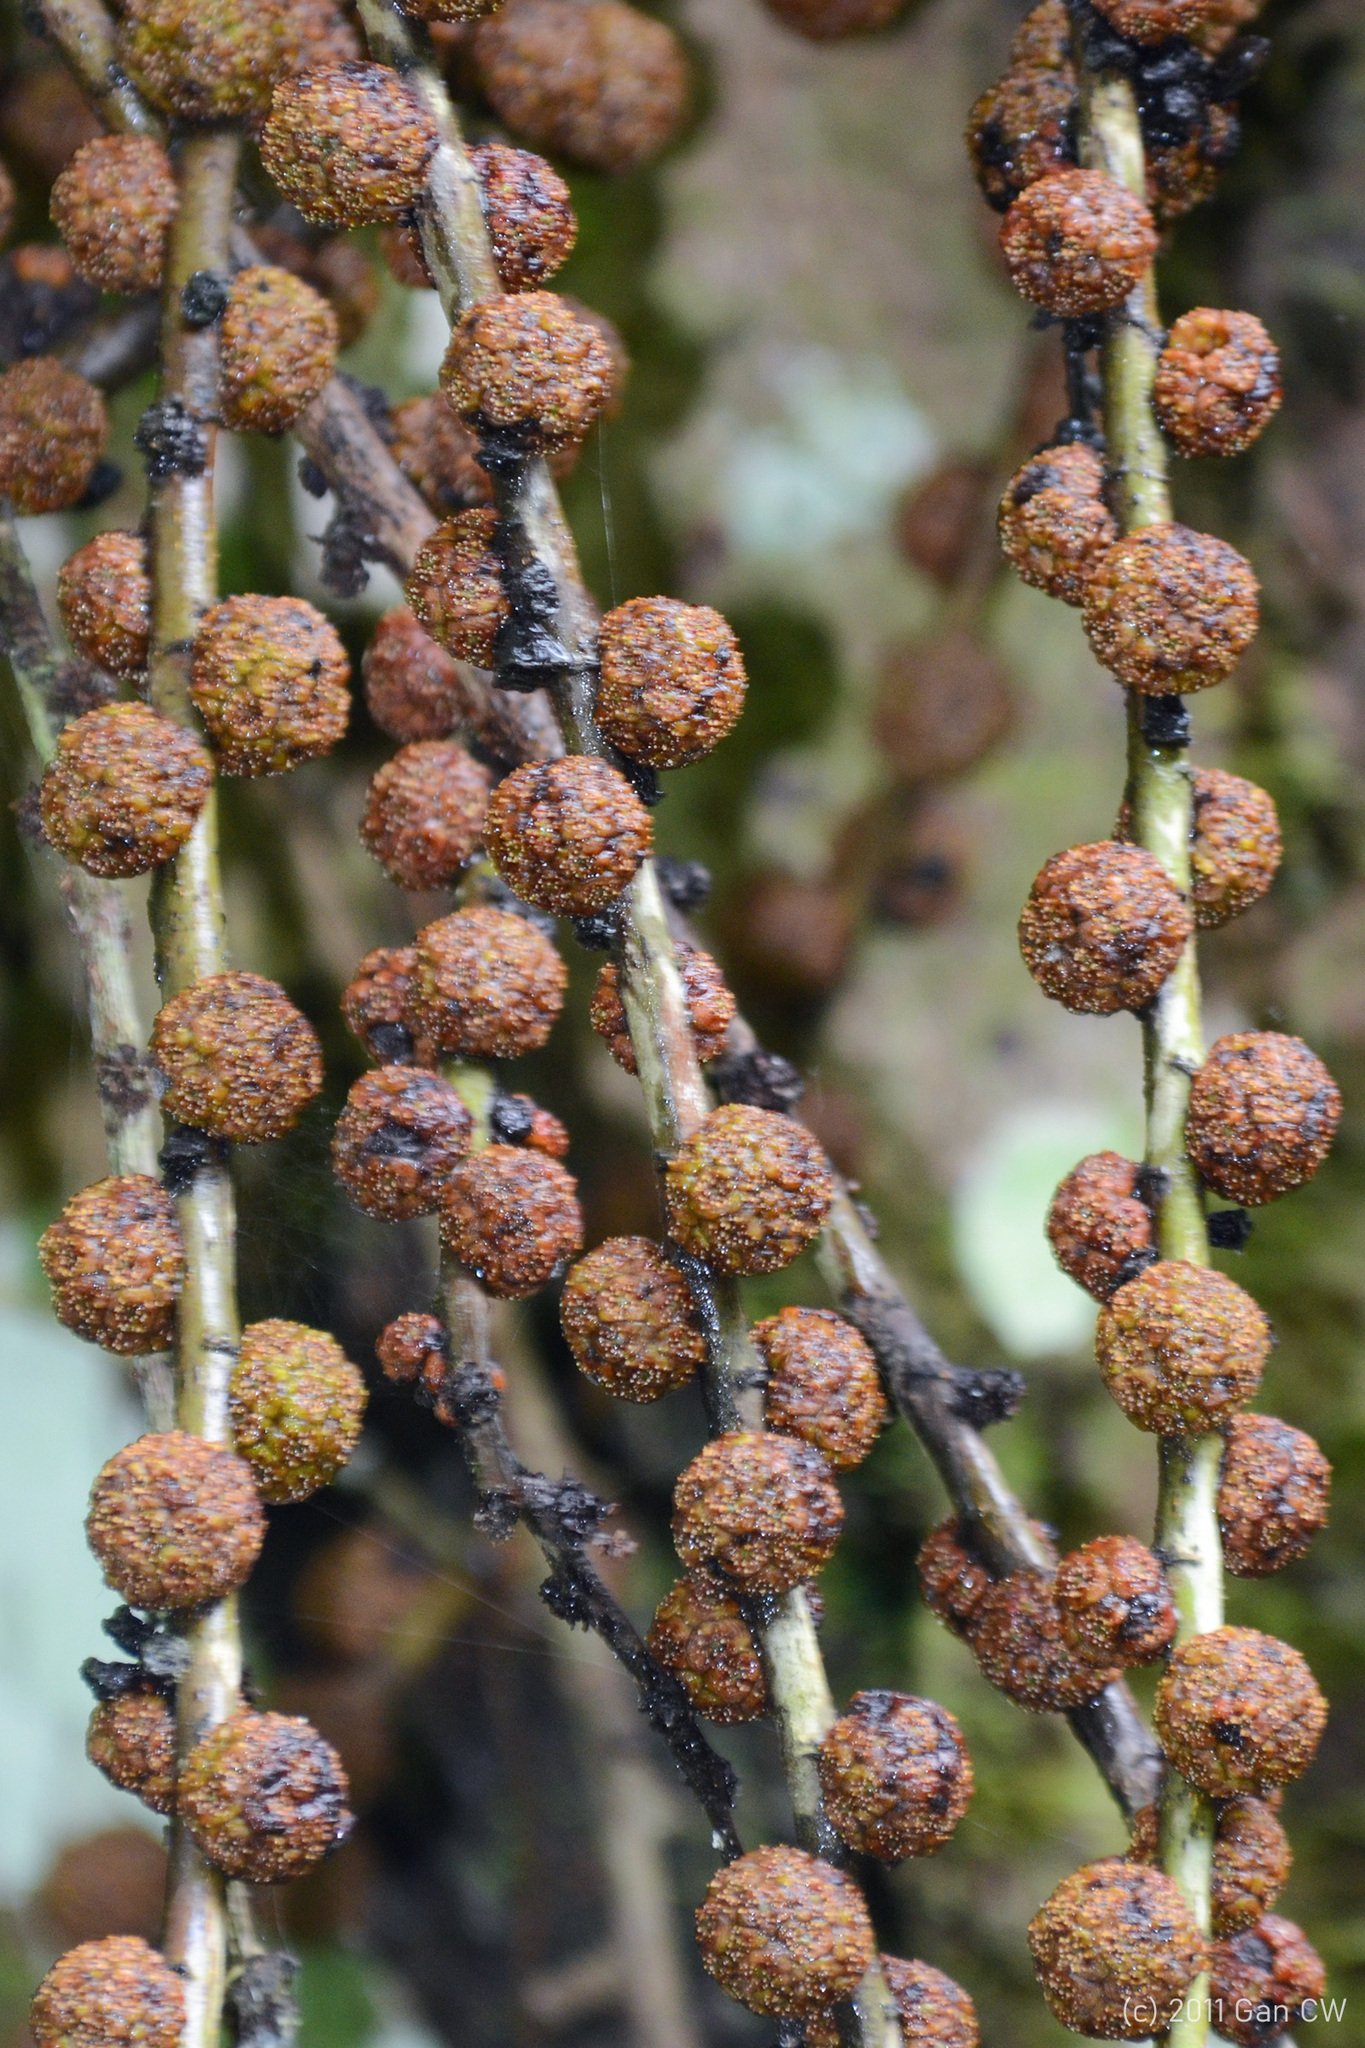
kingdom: Plantae
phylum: Tracheophyta
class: Magnoliopsida
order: Rosales
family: Moraceae
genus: Ficus
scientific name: Ficus minahassae
